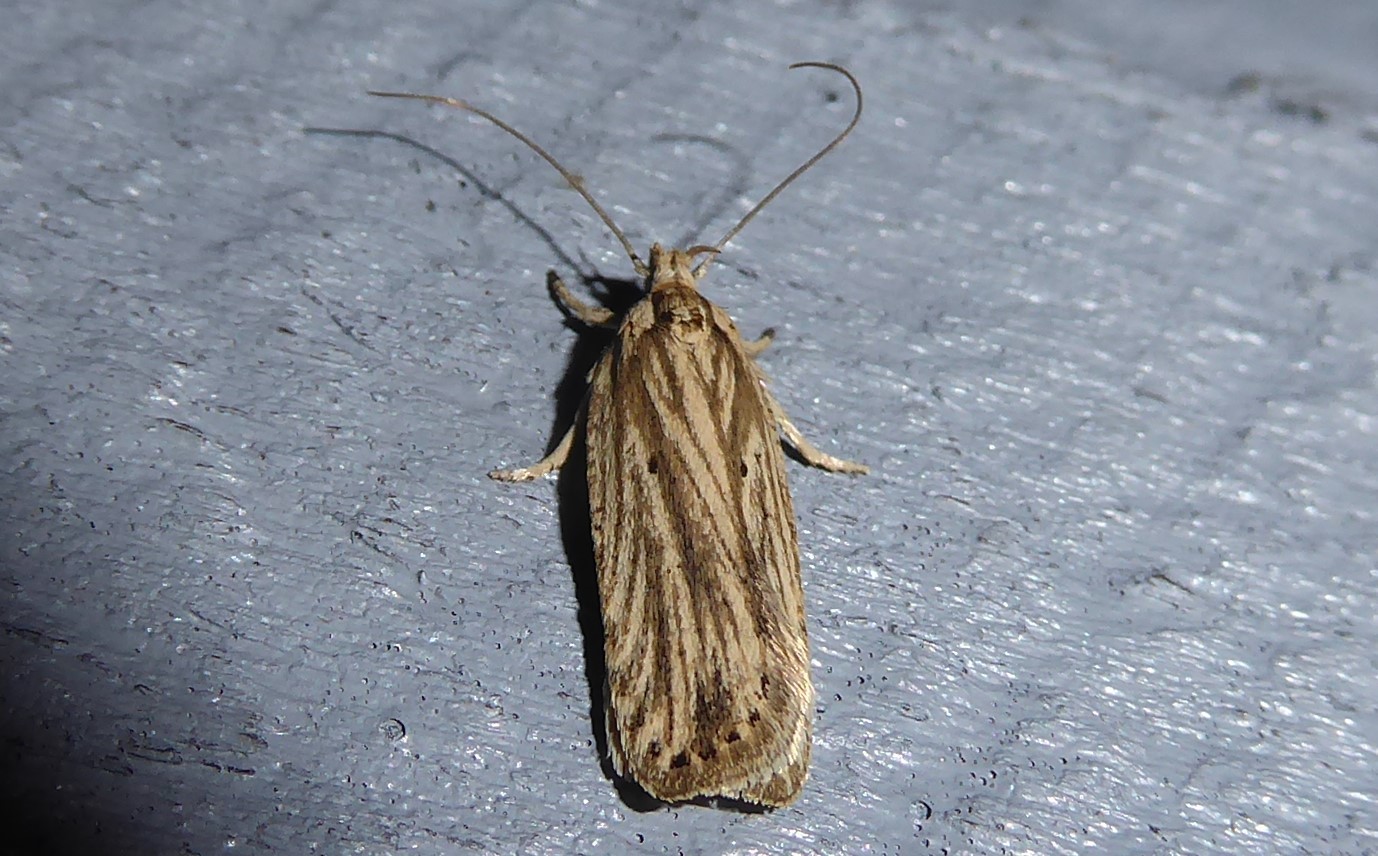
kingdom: Animalia
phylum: Arthropoda
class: Insecta
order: Lepidoptera
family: Depressariidae
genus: Agonopterix
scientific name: Agonopterix
